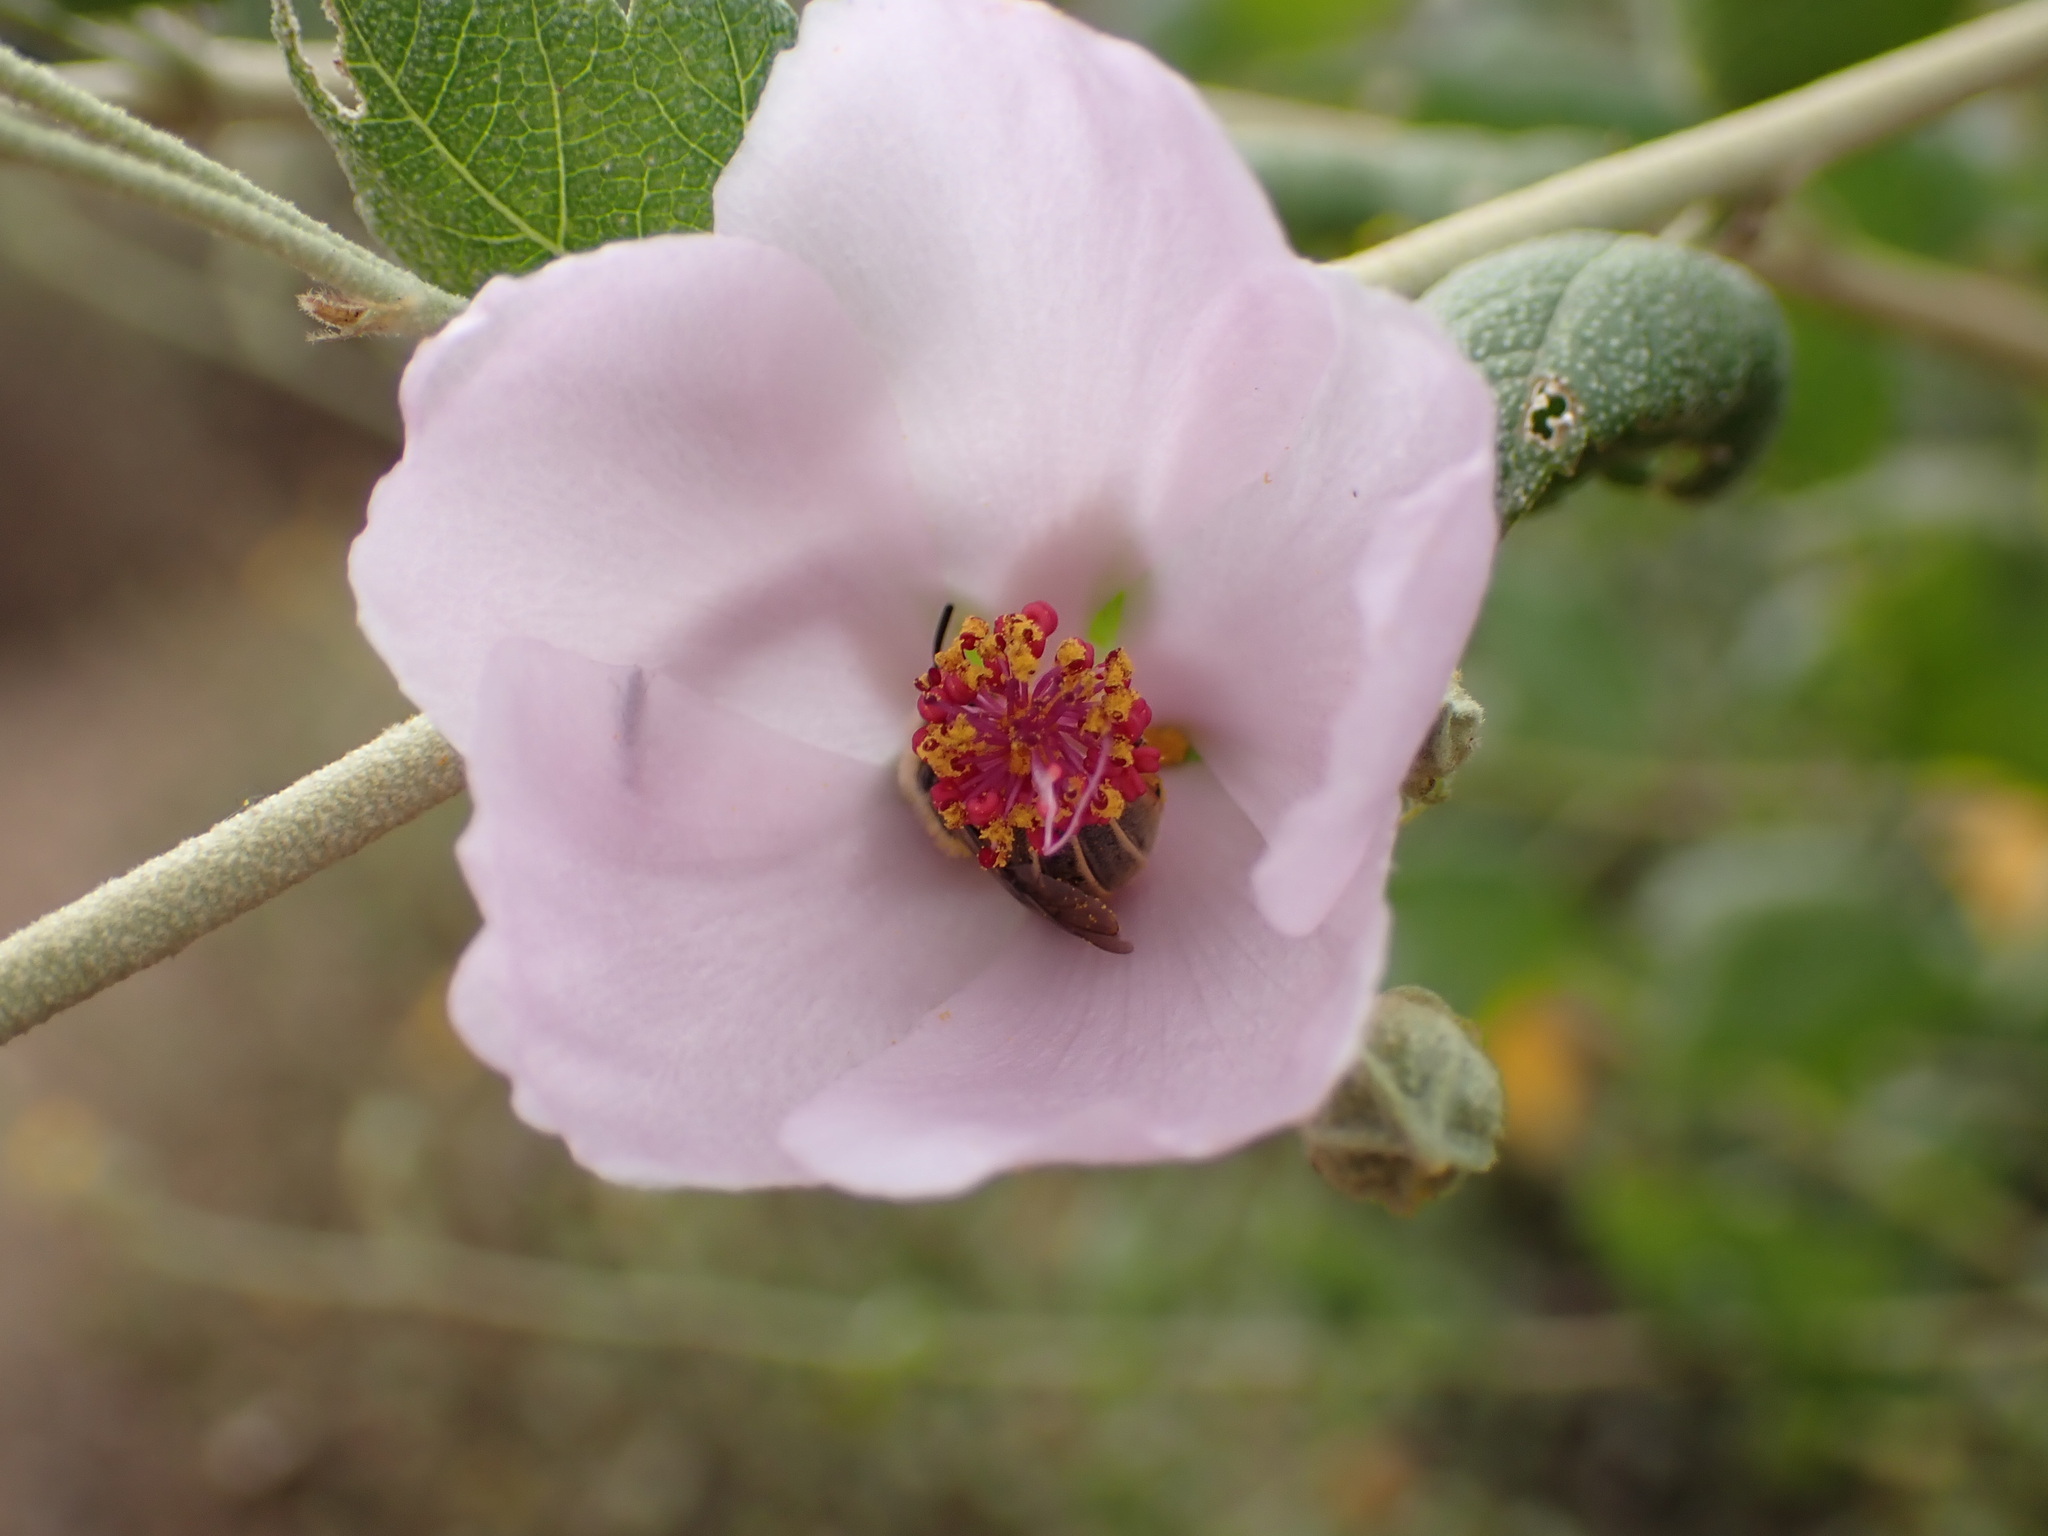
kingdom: Plantae
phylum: Tracheophyta
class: Magnoliopsida
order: Malvales
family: Malvaceae
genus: Malacothamnus
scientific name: Malacothamnus fasciculatus
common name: Sant cruz island bush-mallow
